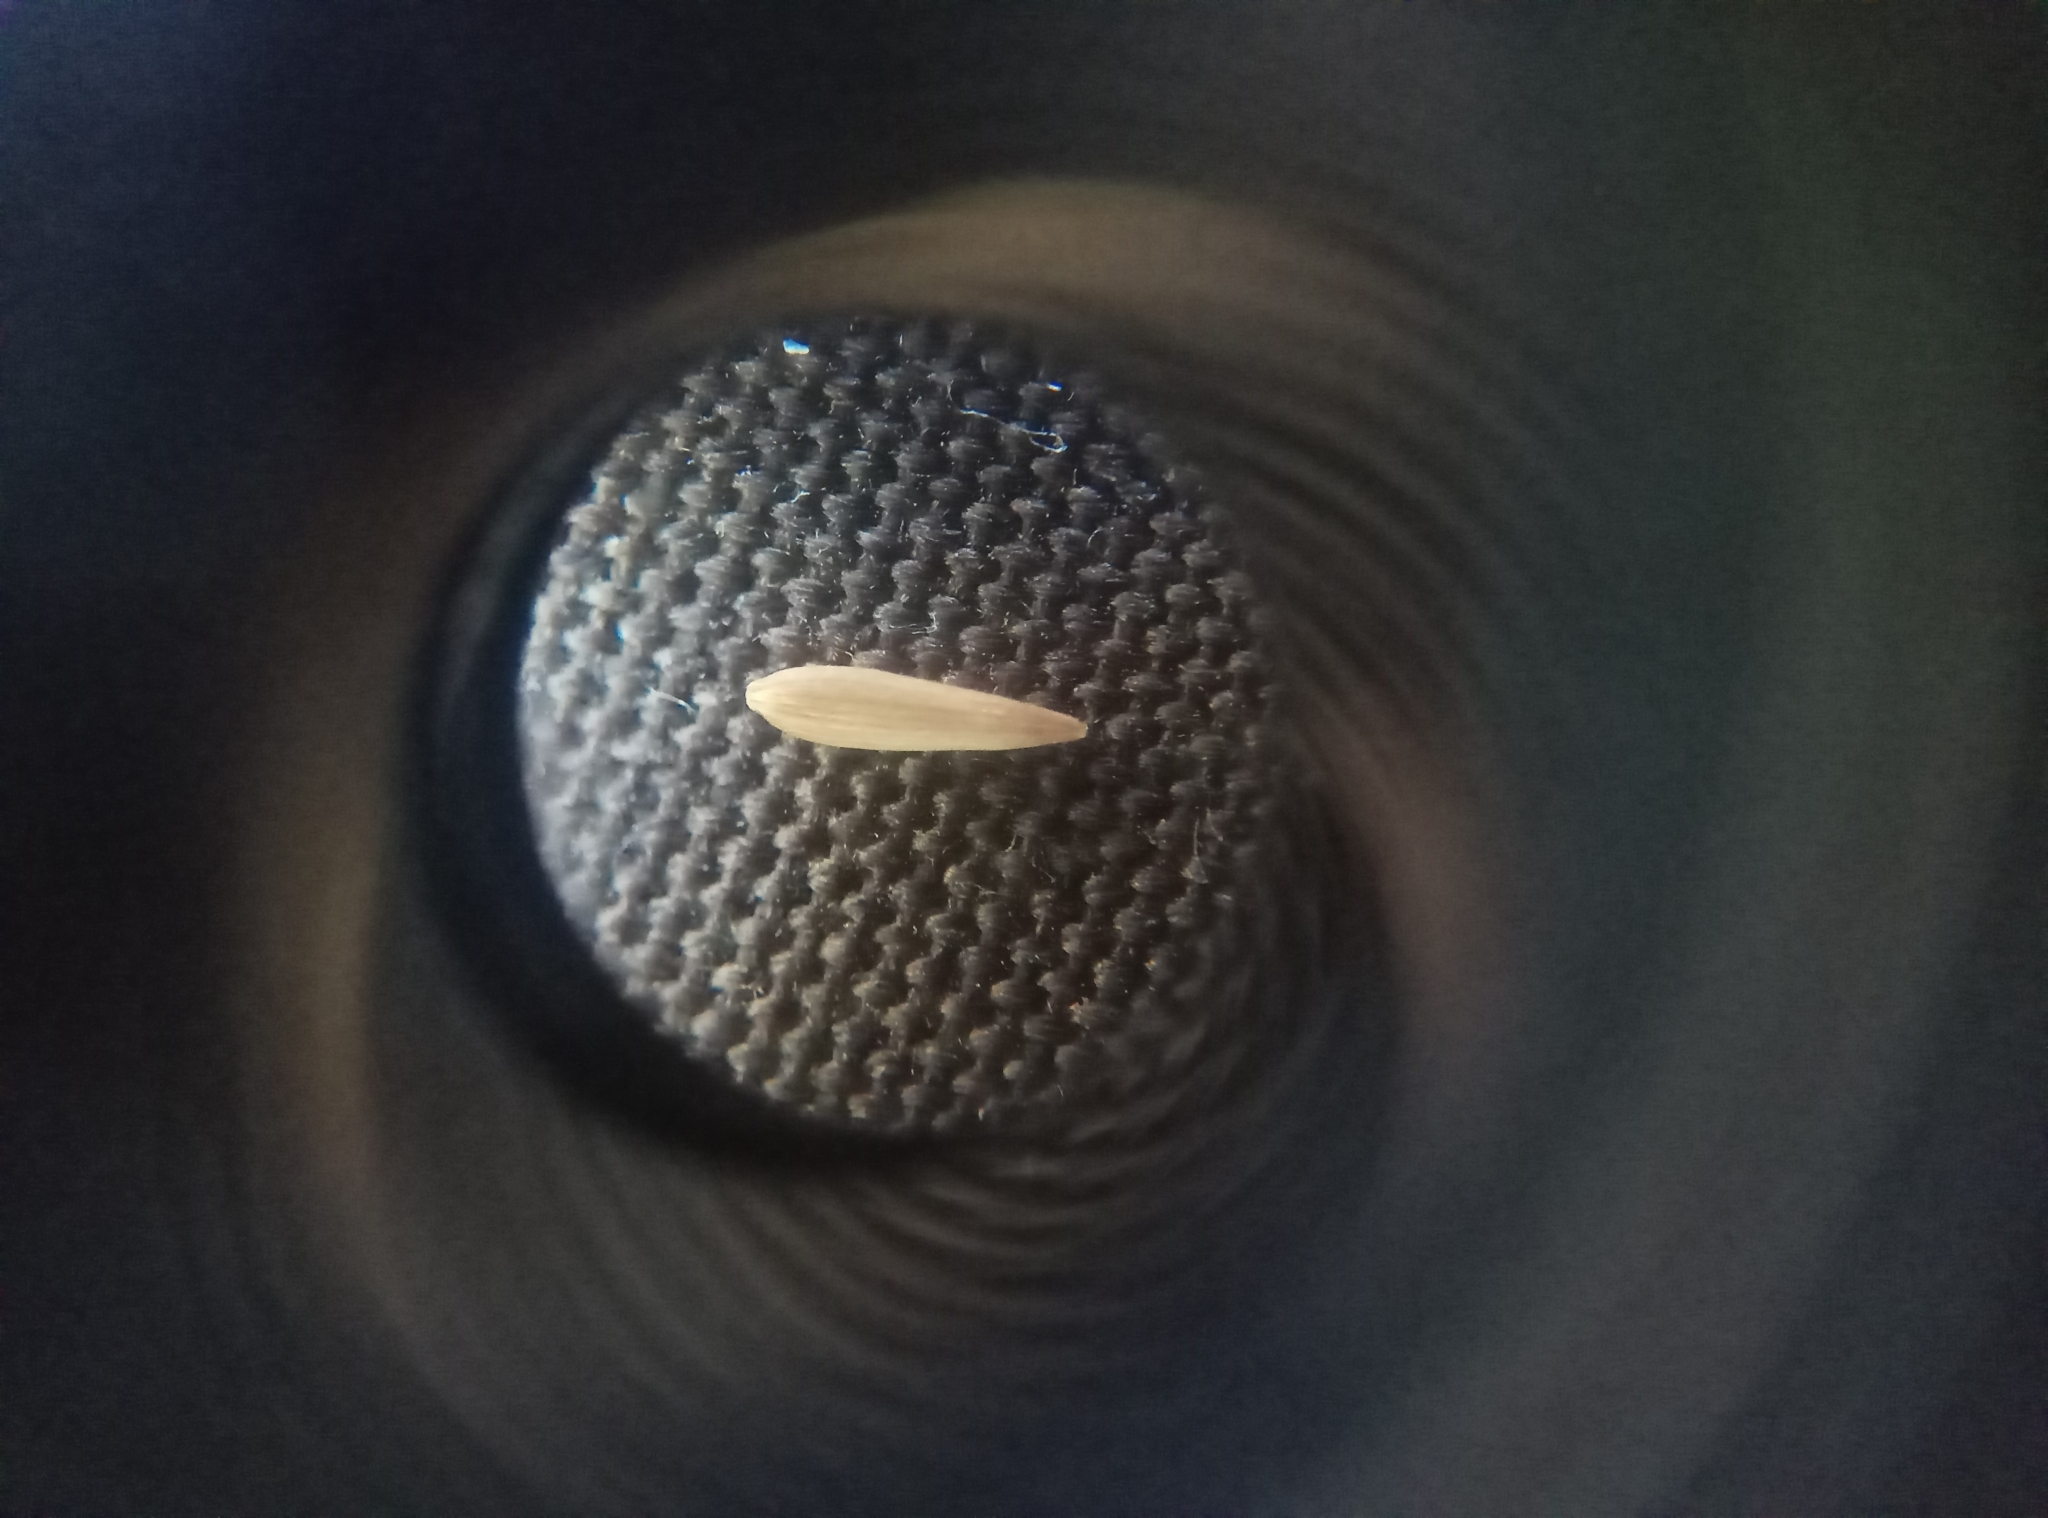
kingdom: Plantae
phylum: Tracheophyta
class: Magnoliopsida
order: Asterales
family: Asteraceae
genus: Lapsana
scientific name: Lapsana communis
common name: Nipplewort
